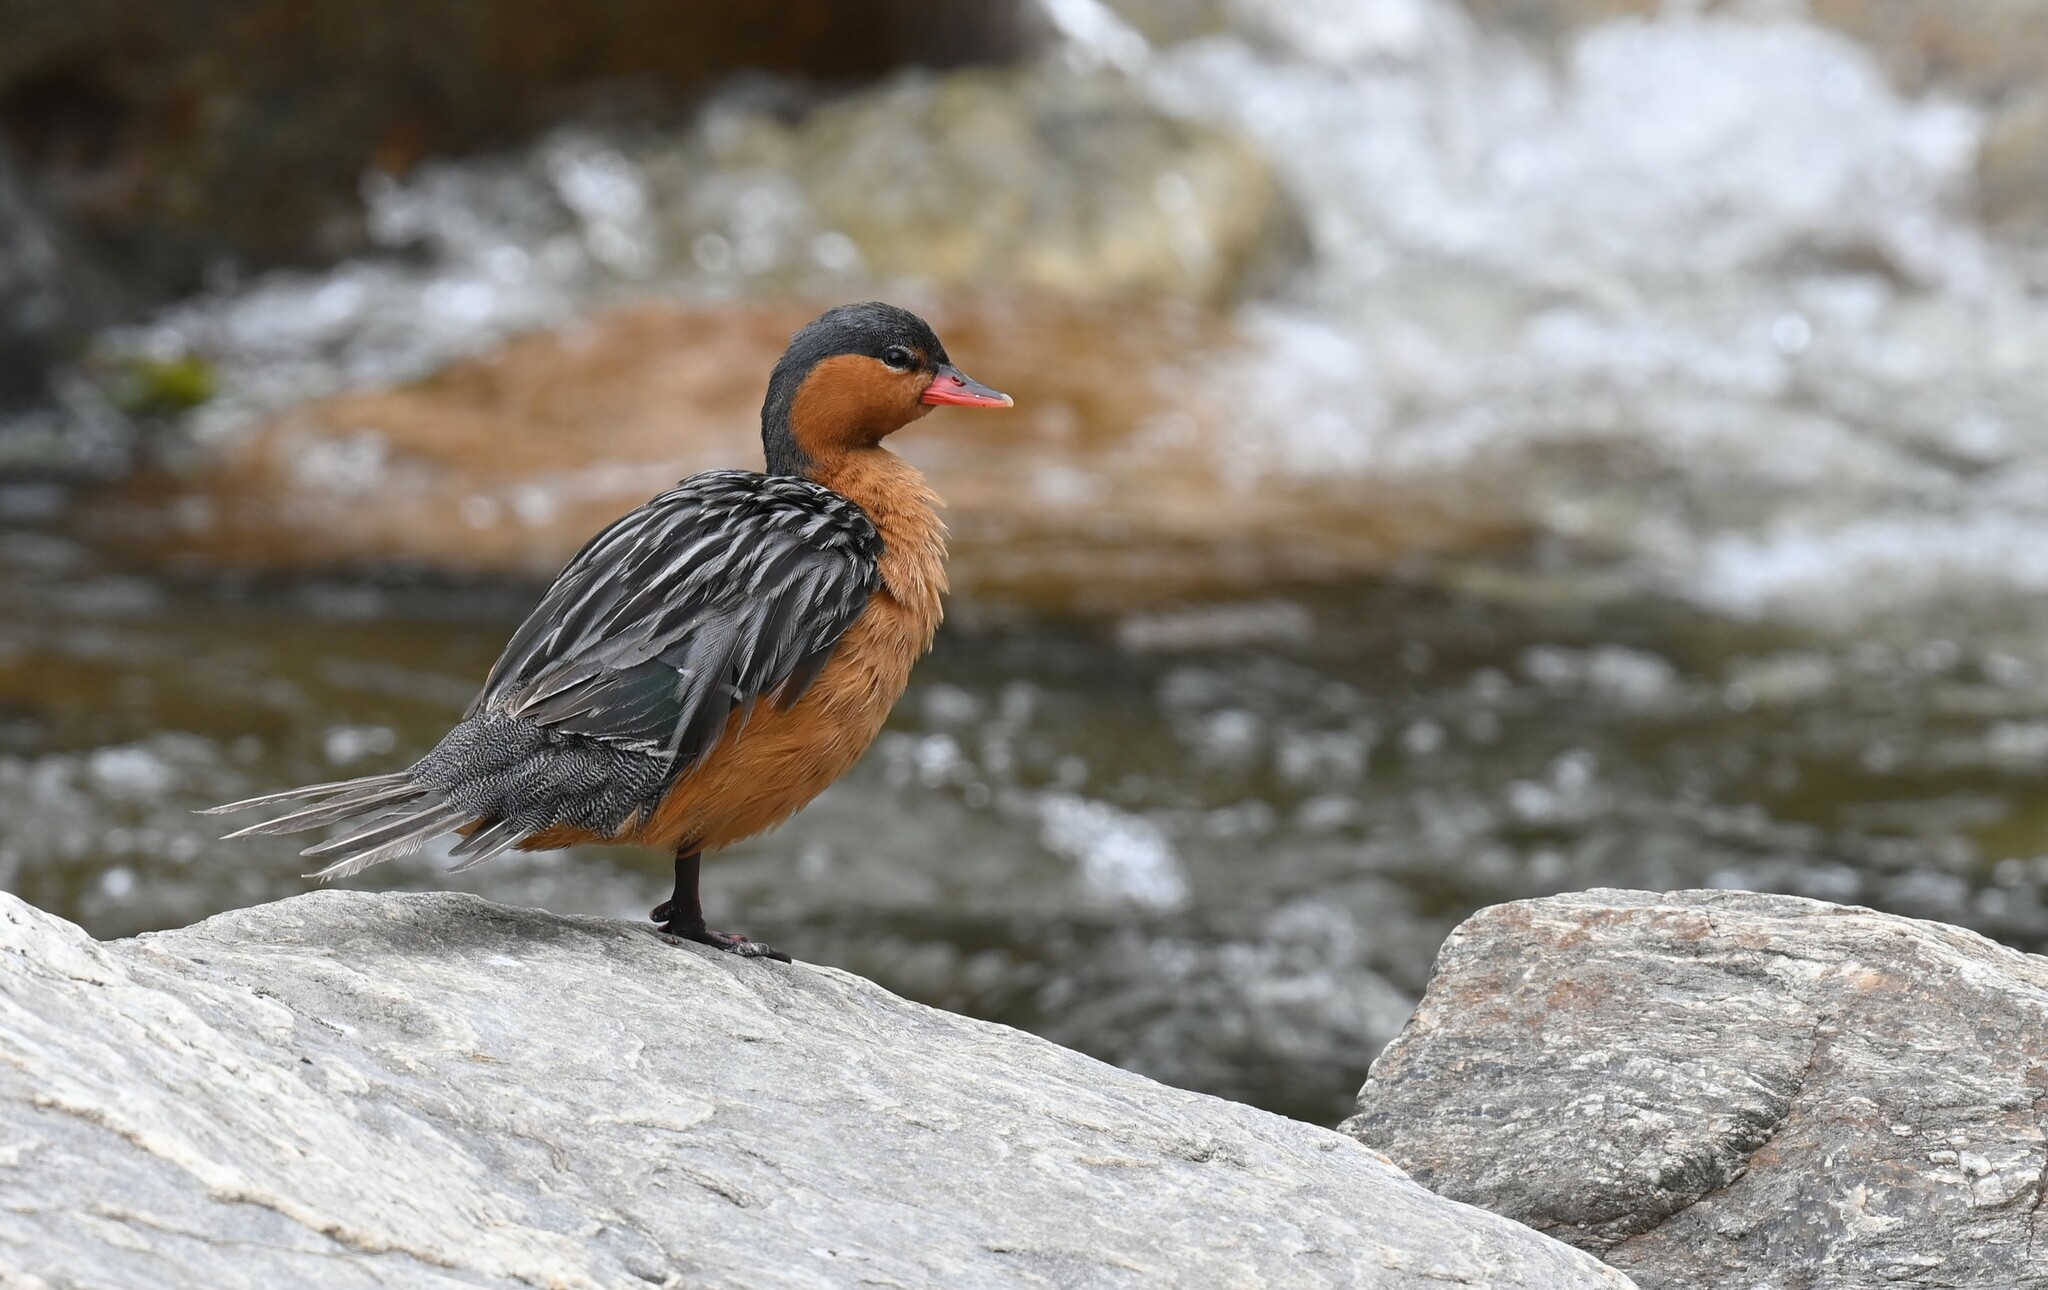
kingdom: Animalia
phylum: Chordata
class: Aves
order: Anseriformes
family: Anatidae
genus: Merganetta
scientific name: Merganetta armata
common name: Torrent duck
